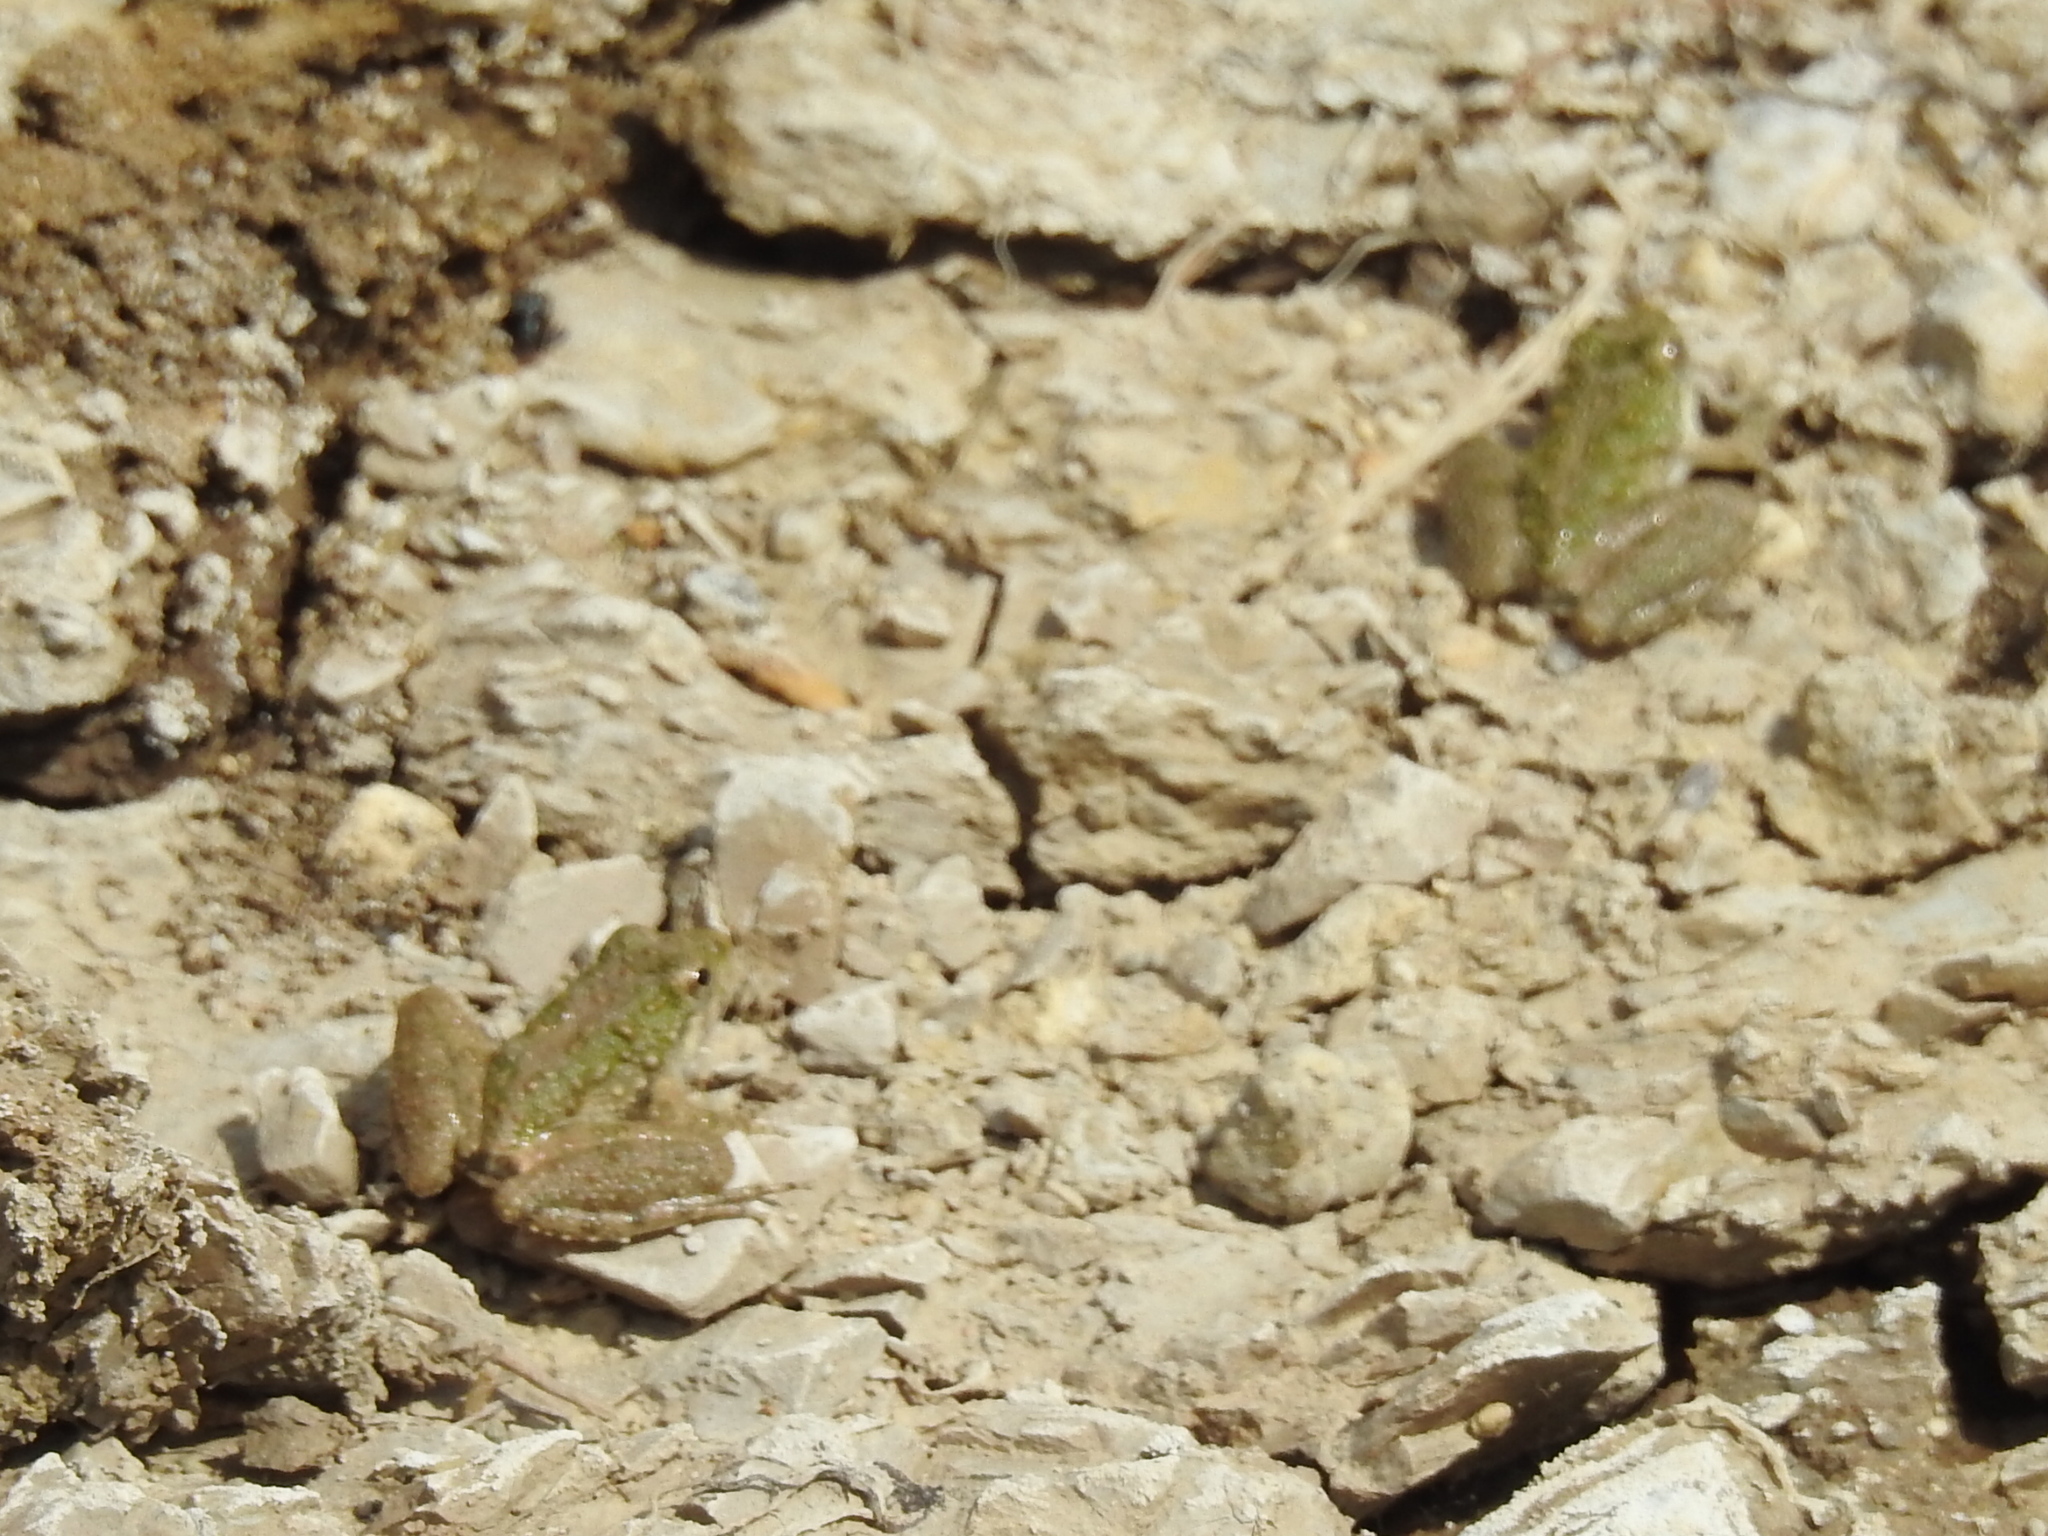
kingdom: Animalia
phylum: Chordata
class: Amphibia
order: Anura
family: Hylidae
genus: Acris
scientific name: Acris blanchardi
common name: Blanchard's cricket frog
